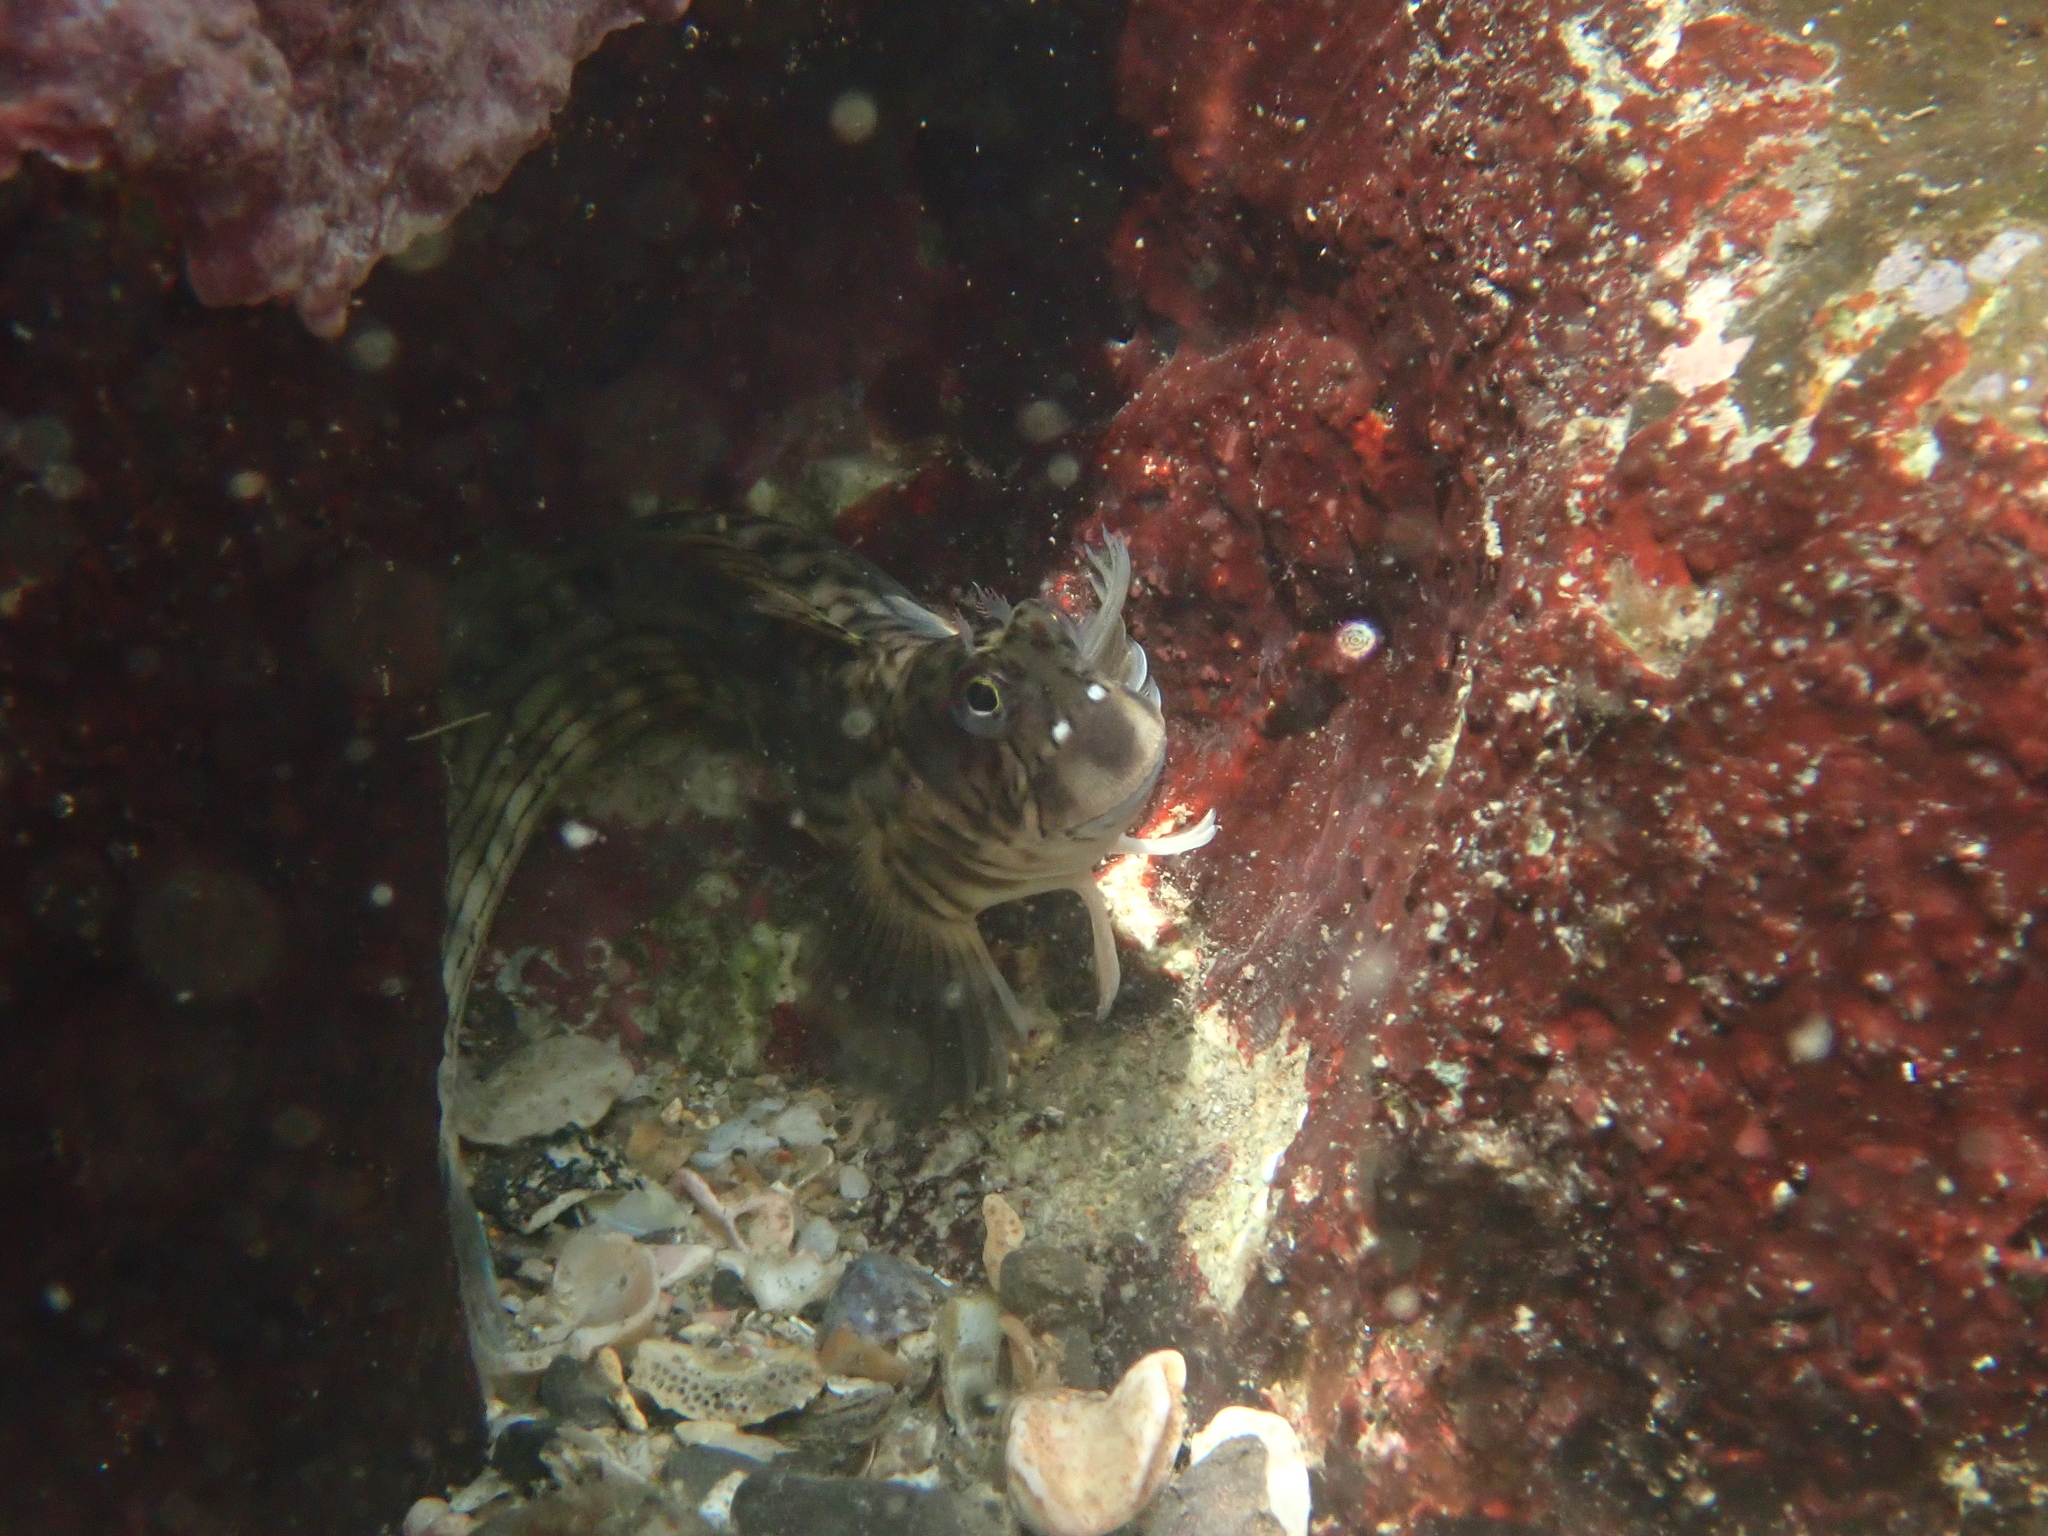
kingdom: Animalia
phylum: Chordata
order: Perciformes
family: Blenniidae
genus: Istiblennius
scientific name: Istiblennius lineatus
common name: Black-lined blenny
